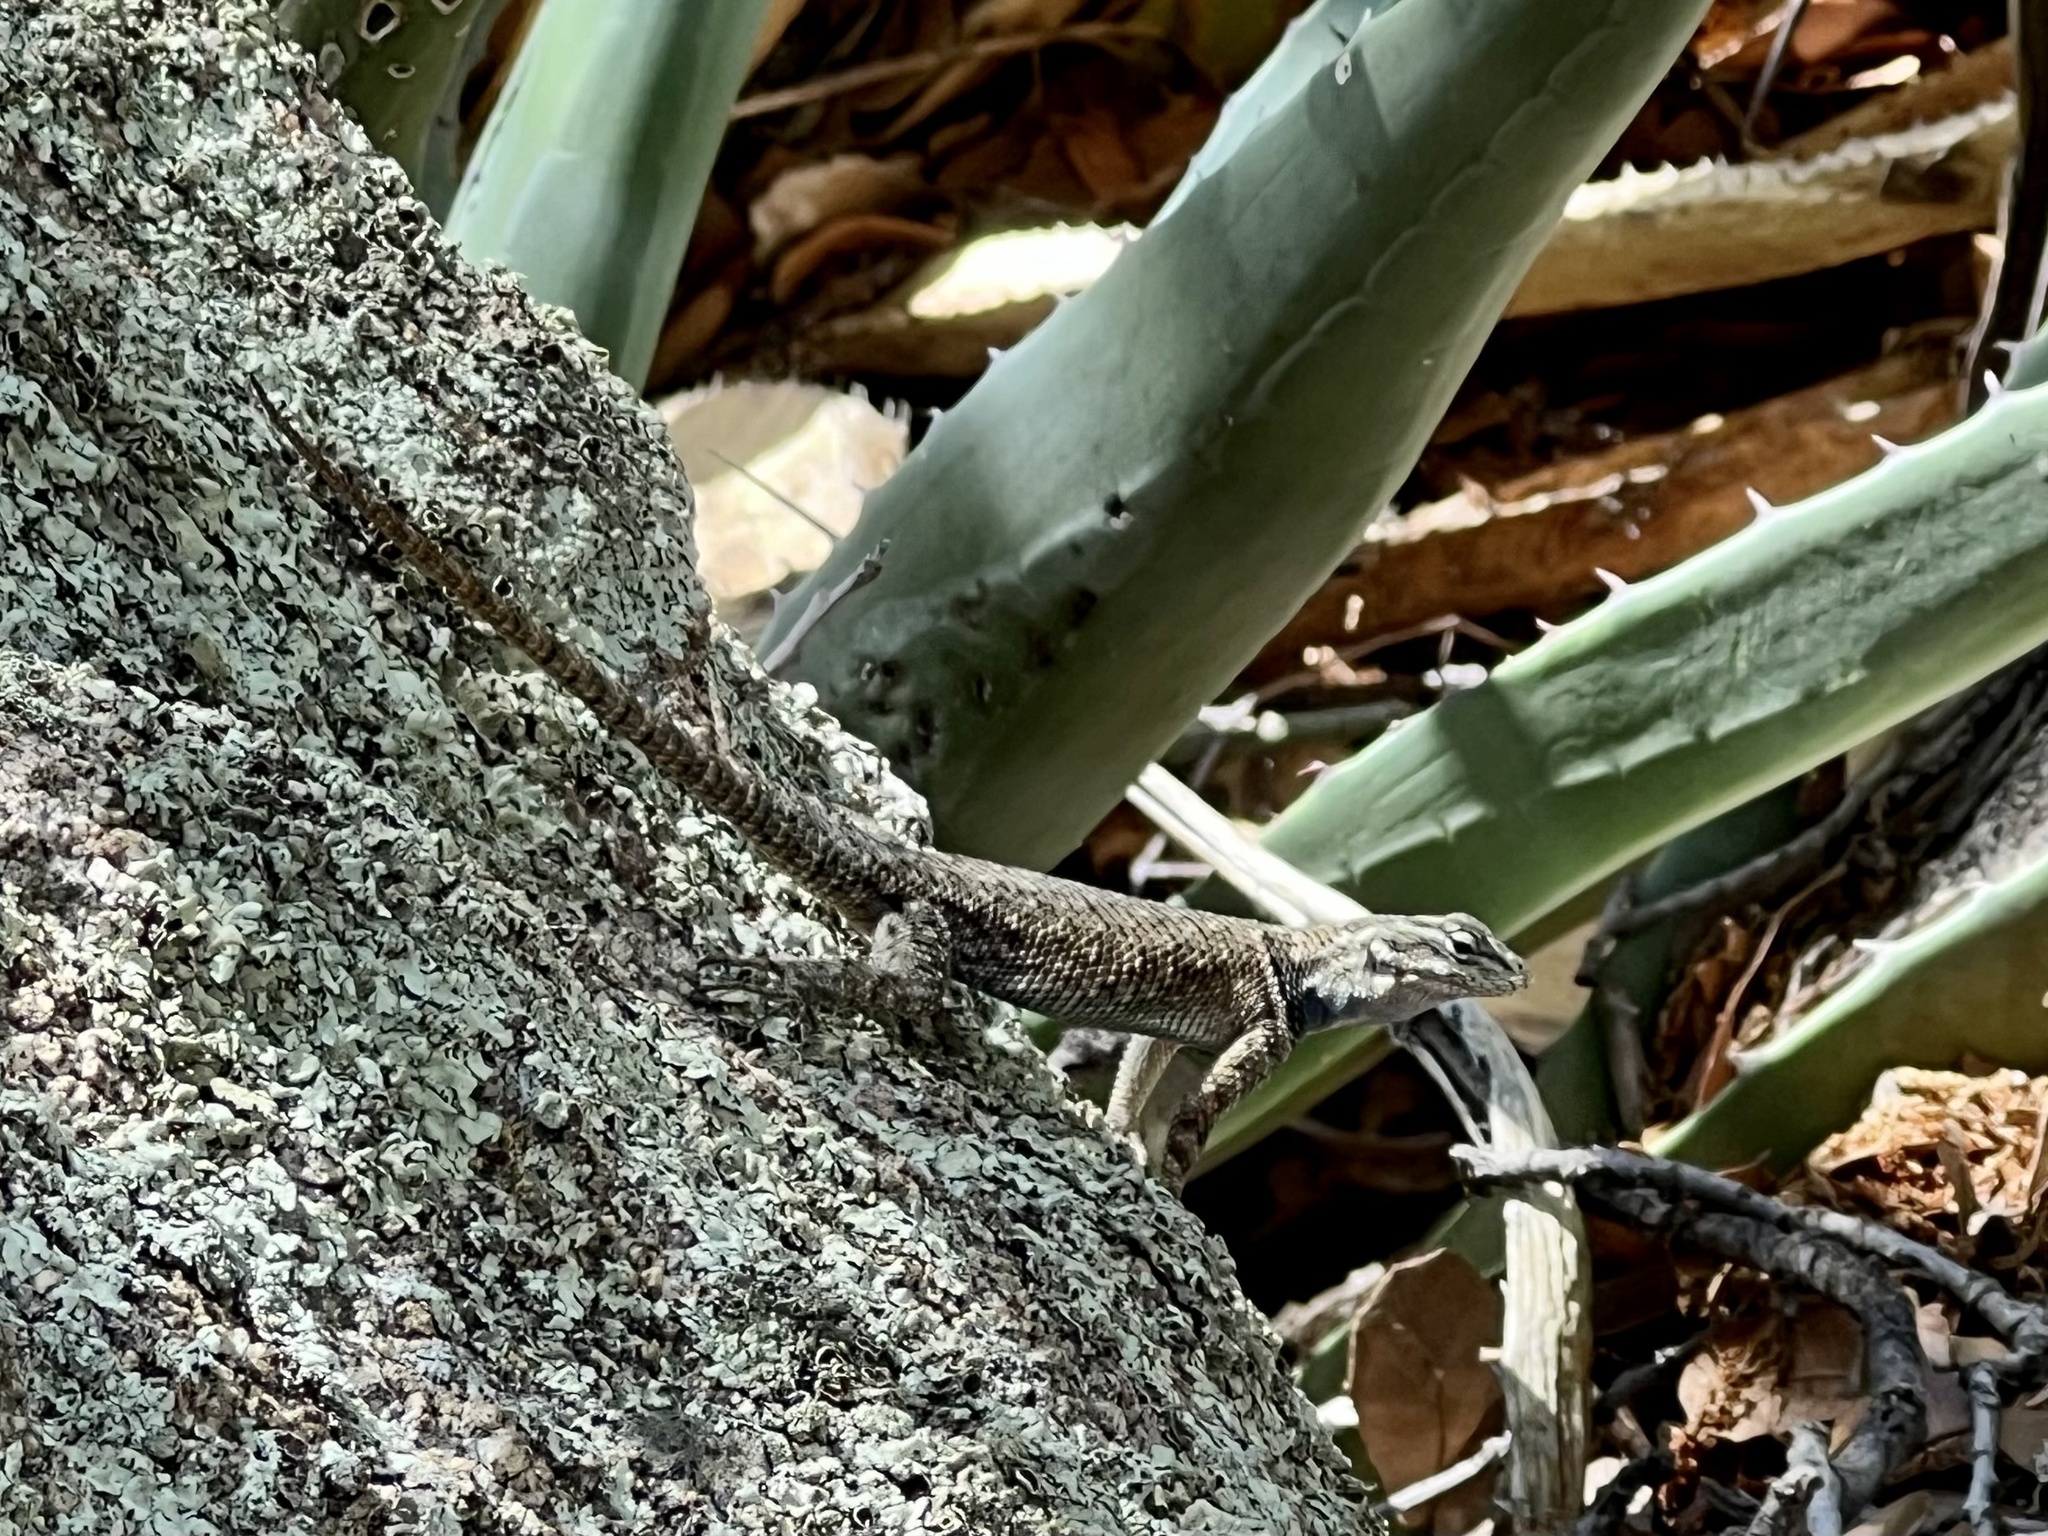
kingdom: Animalia
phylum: Chordata
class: Squamata
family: Phrynosomatidae
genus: Sceloporus
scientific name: Sceloporus jarrovii
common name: Yarrow's spiny lizard
